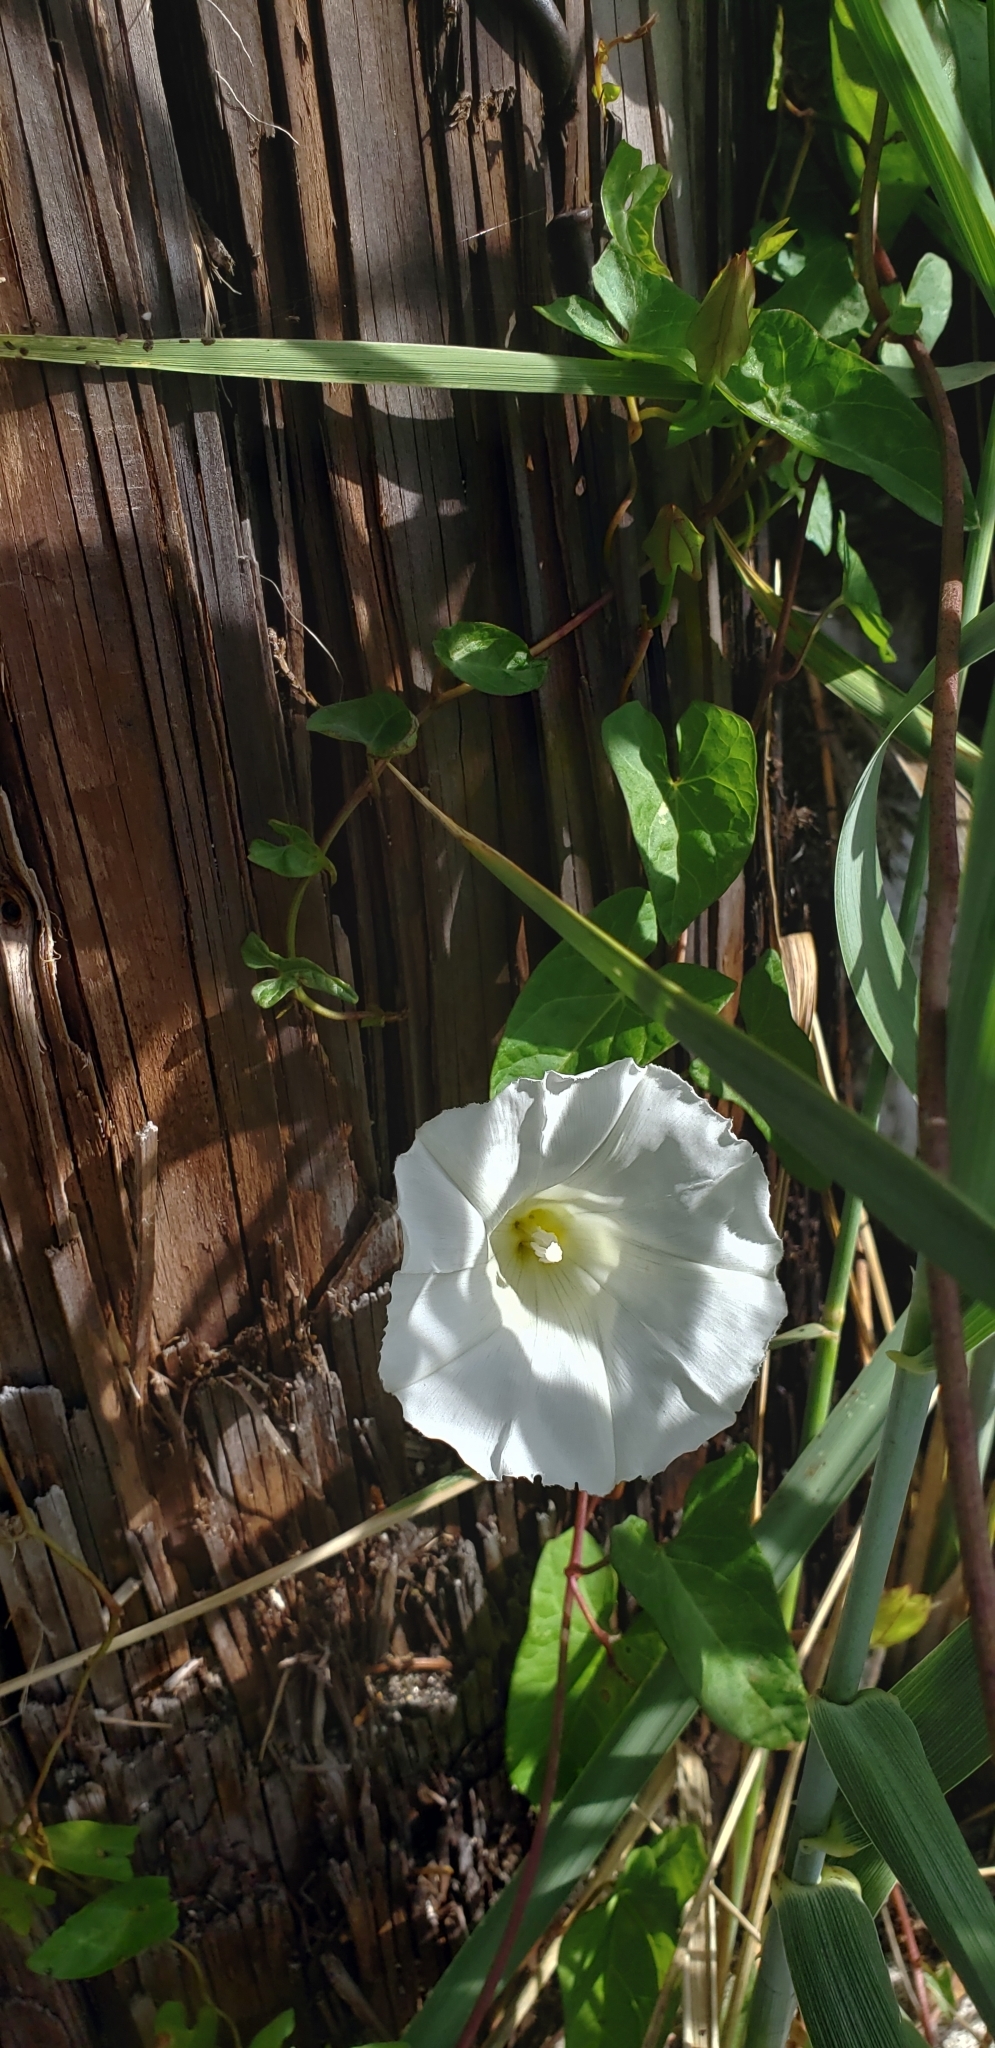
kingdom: Plantae
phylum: Tracheophyta
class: Magnoliopsida
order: Solanales
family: Convolvulaceae
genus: Calystegia
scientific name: Calystegia sepium
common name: Hedge bindweed
